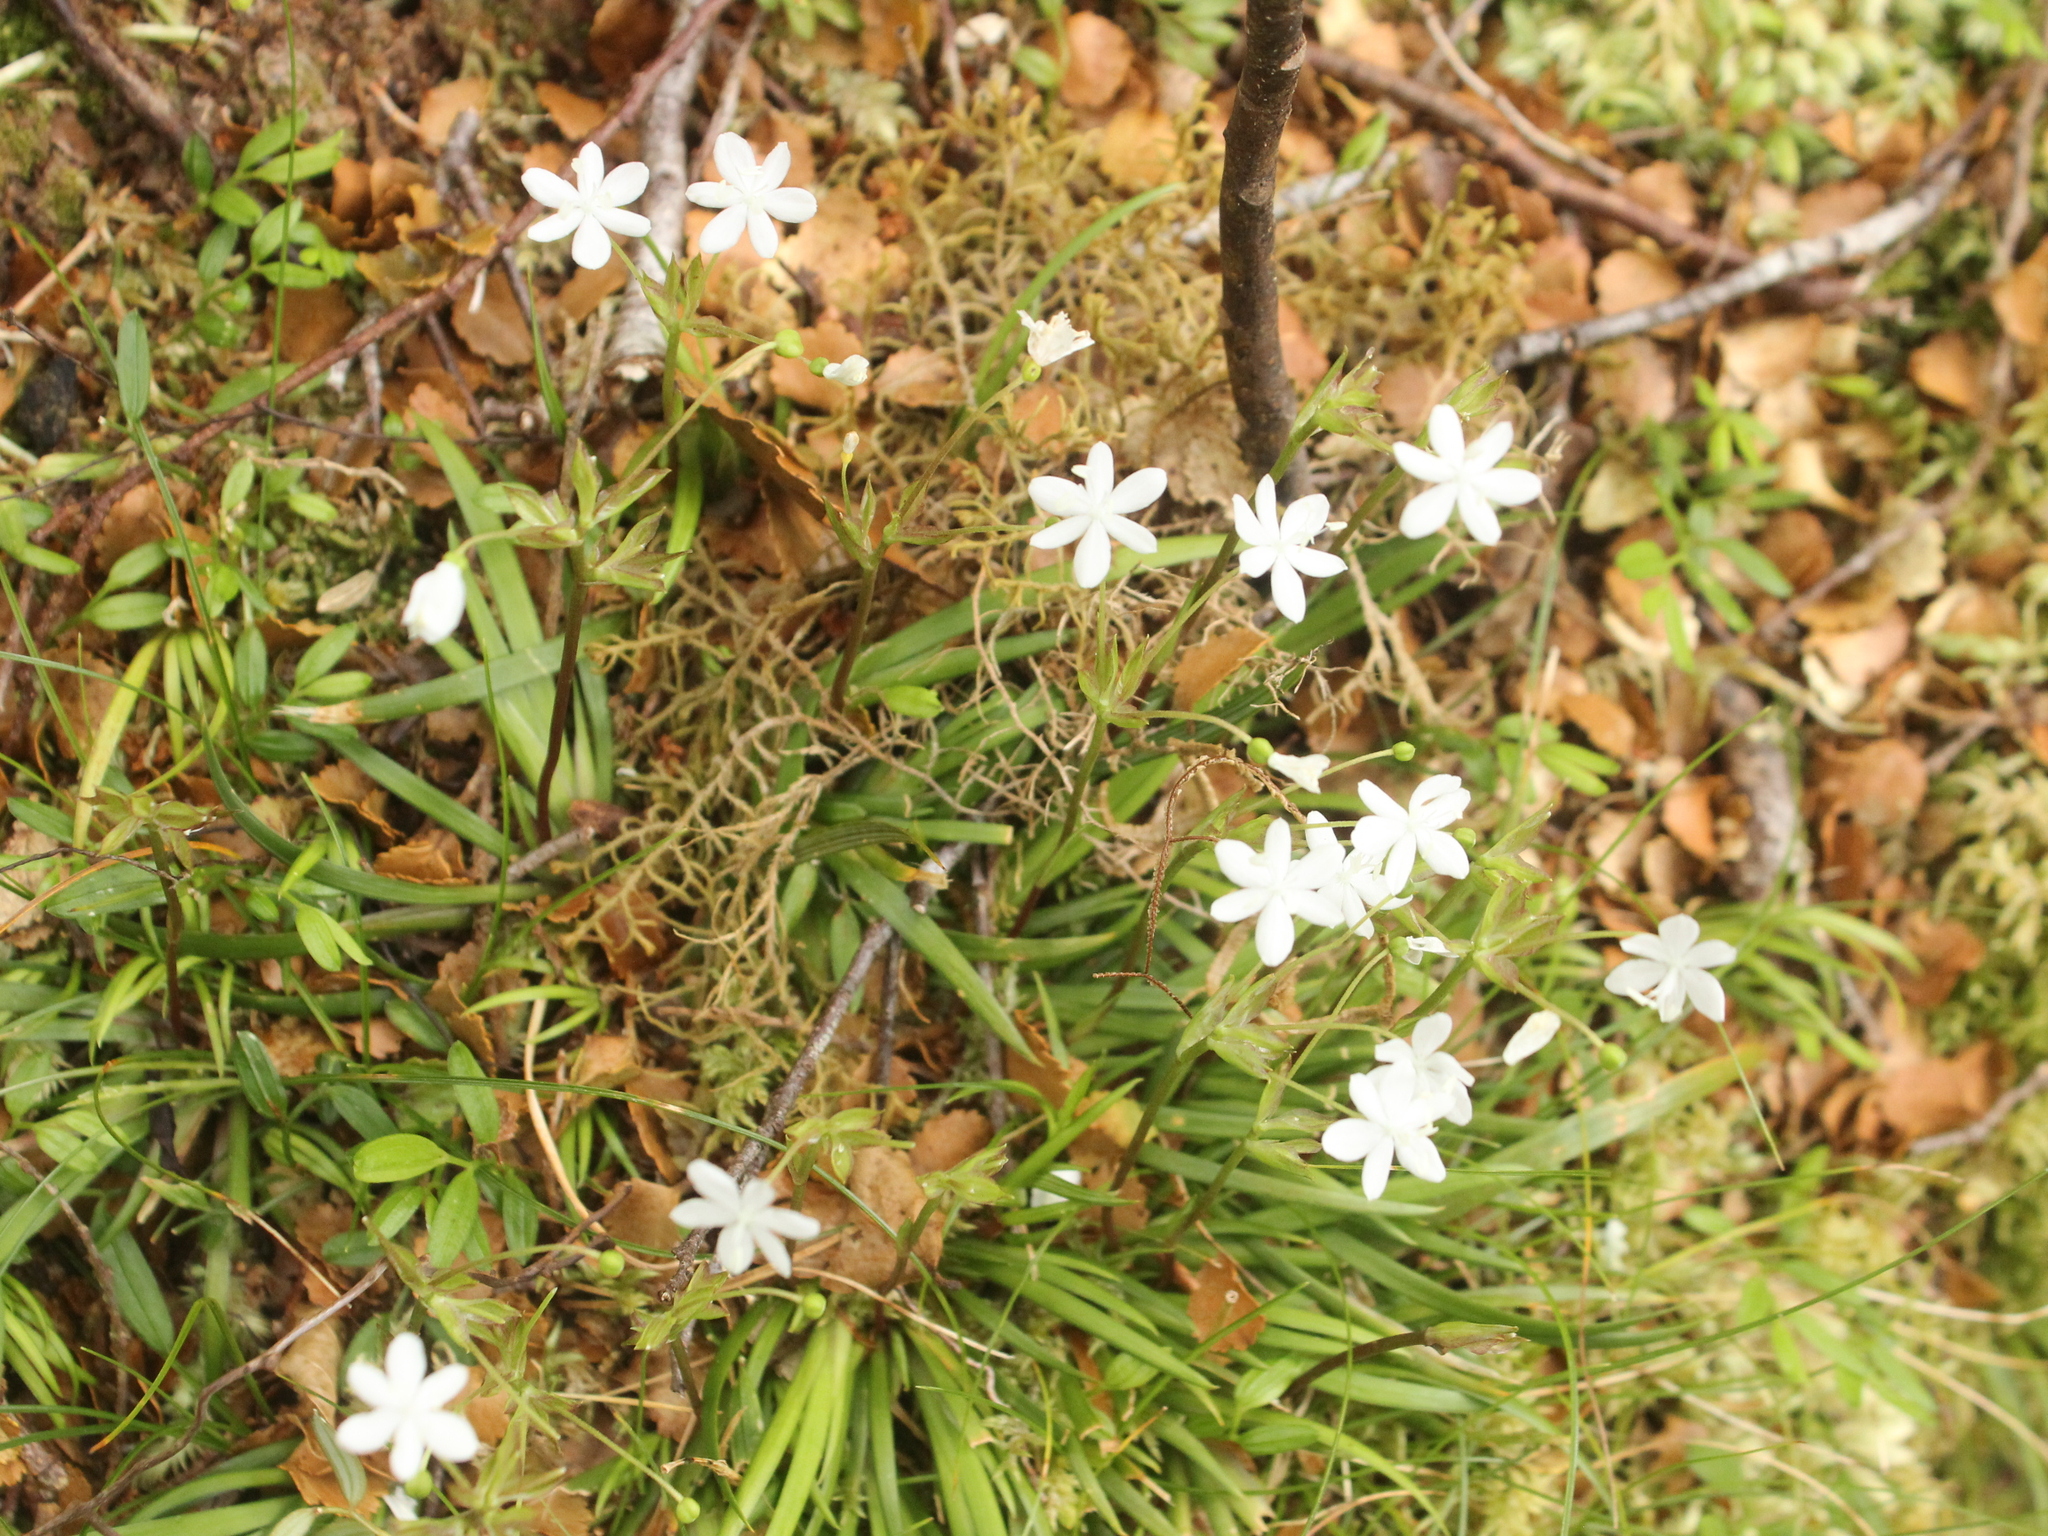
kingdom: Plantae
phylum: Tracheophyta
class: Liliopsida
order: Asparagales
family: Iridaceae
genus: Libertia
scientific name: Libertia micrantha
